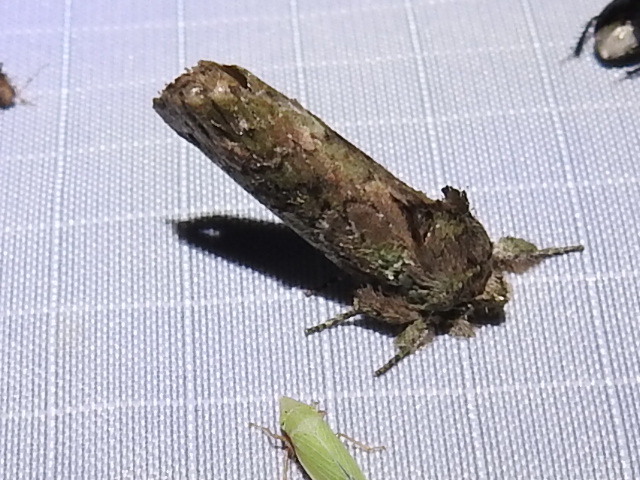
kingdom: Animalia
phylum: Arthropoda
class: Insecta
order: Lepidoptera
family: Notodontidae
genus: Schizura
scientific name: Schizura
